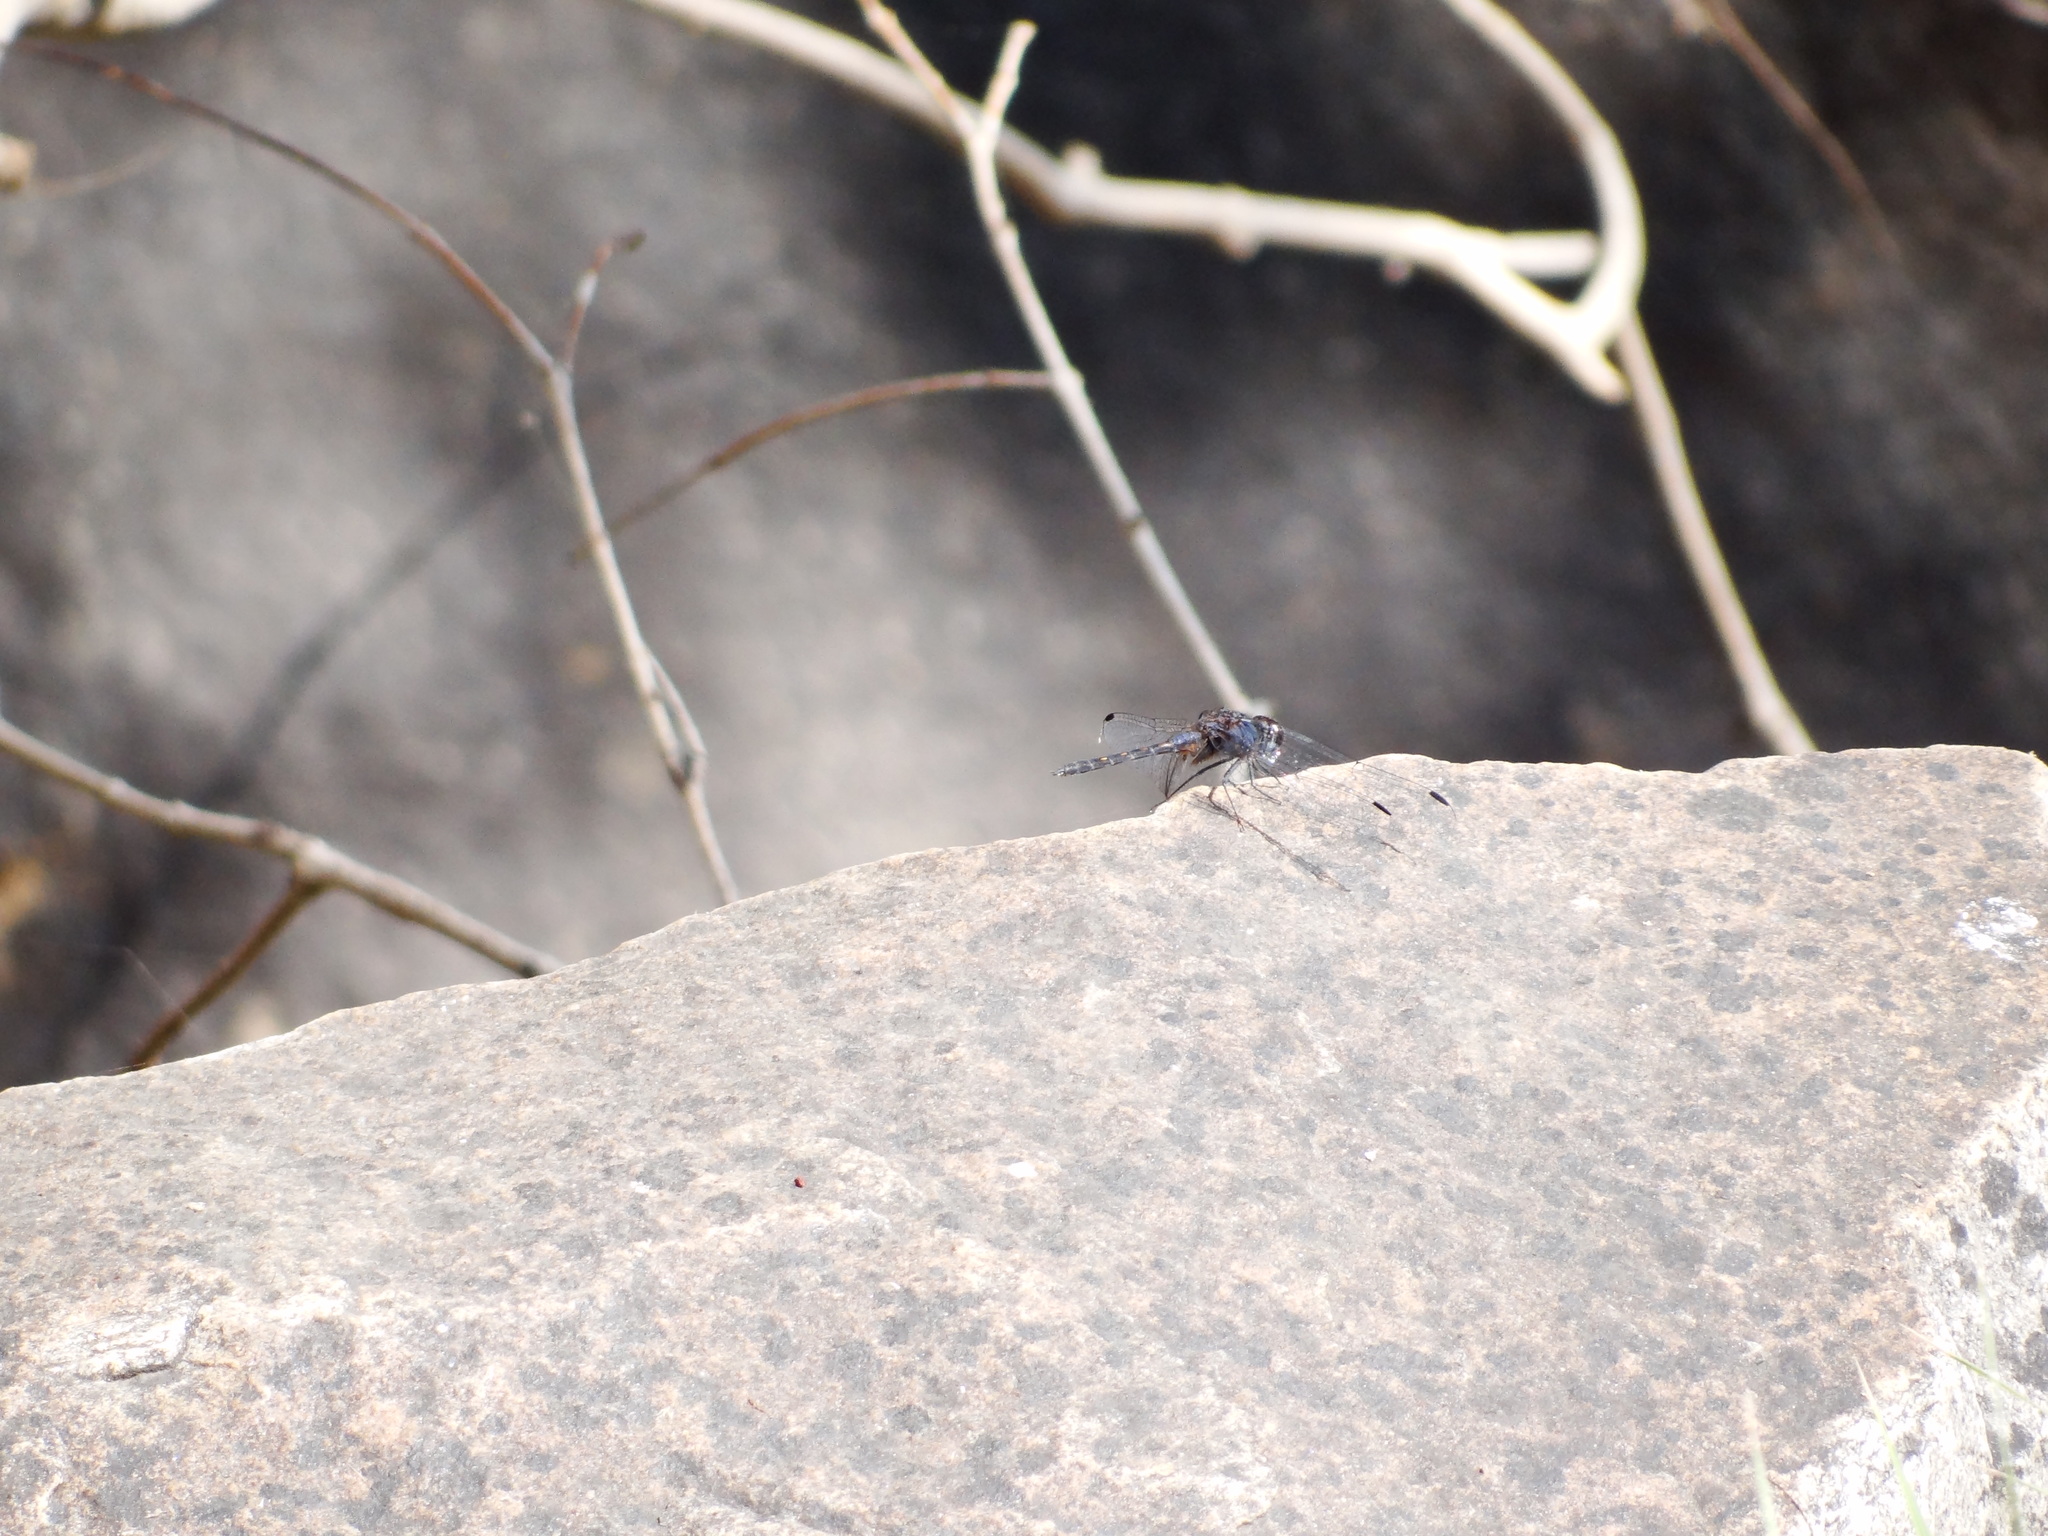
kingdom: Animalia
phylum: Arthropoda
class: Insecta
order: Odonata
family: Libellulidae
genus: Trithemis
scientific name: Trithemis festiva
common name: Indigo dropwing
